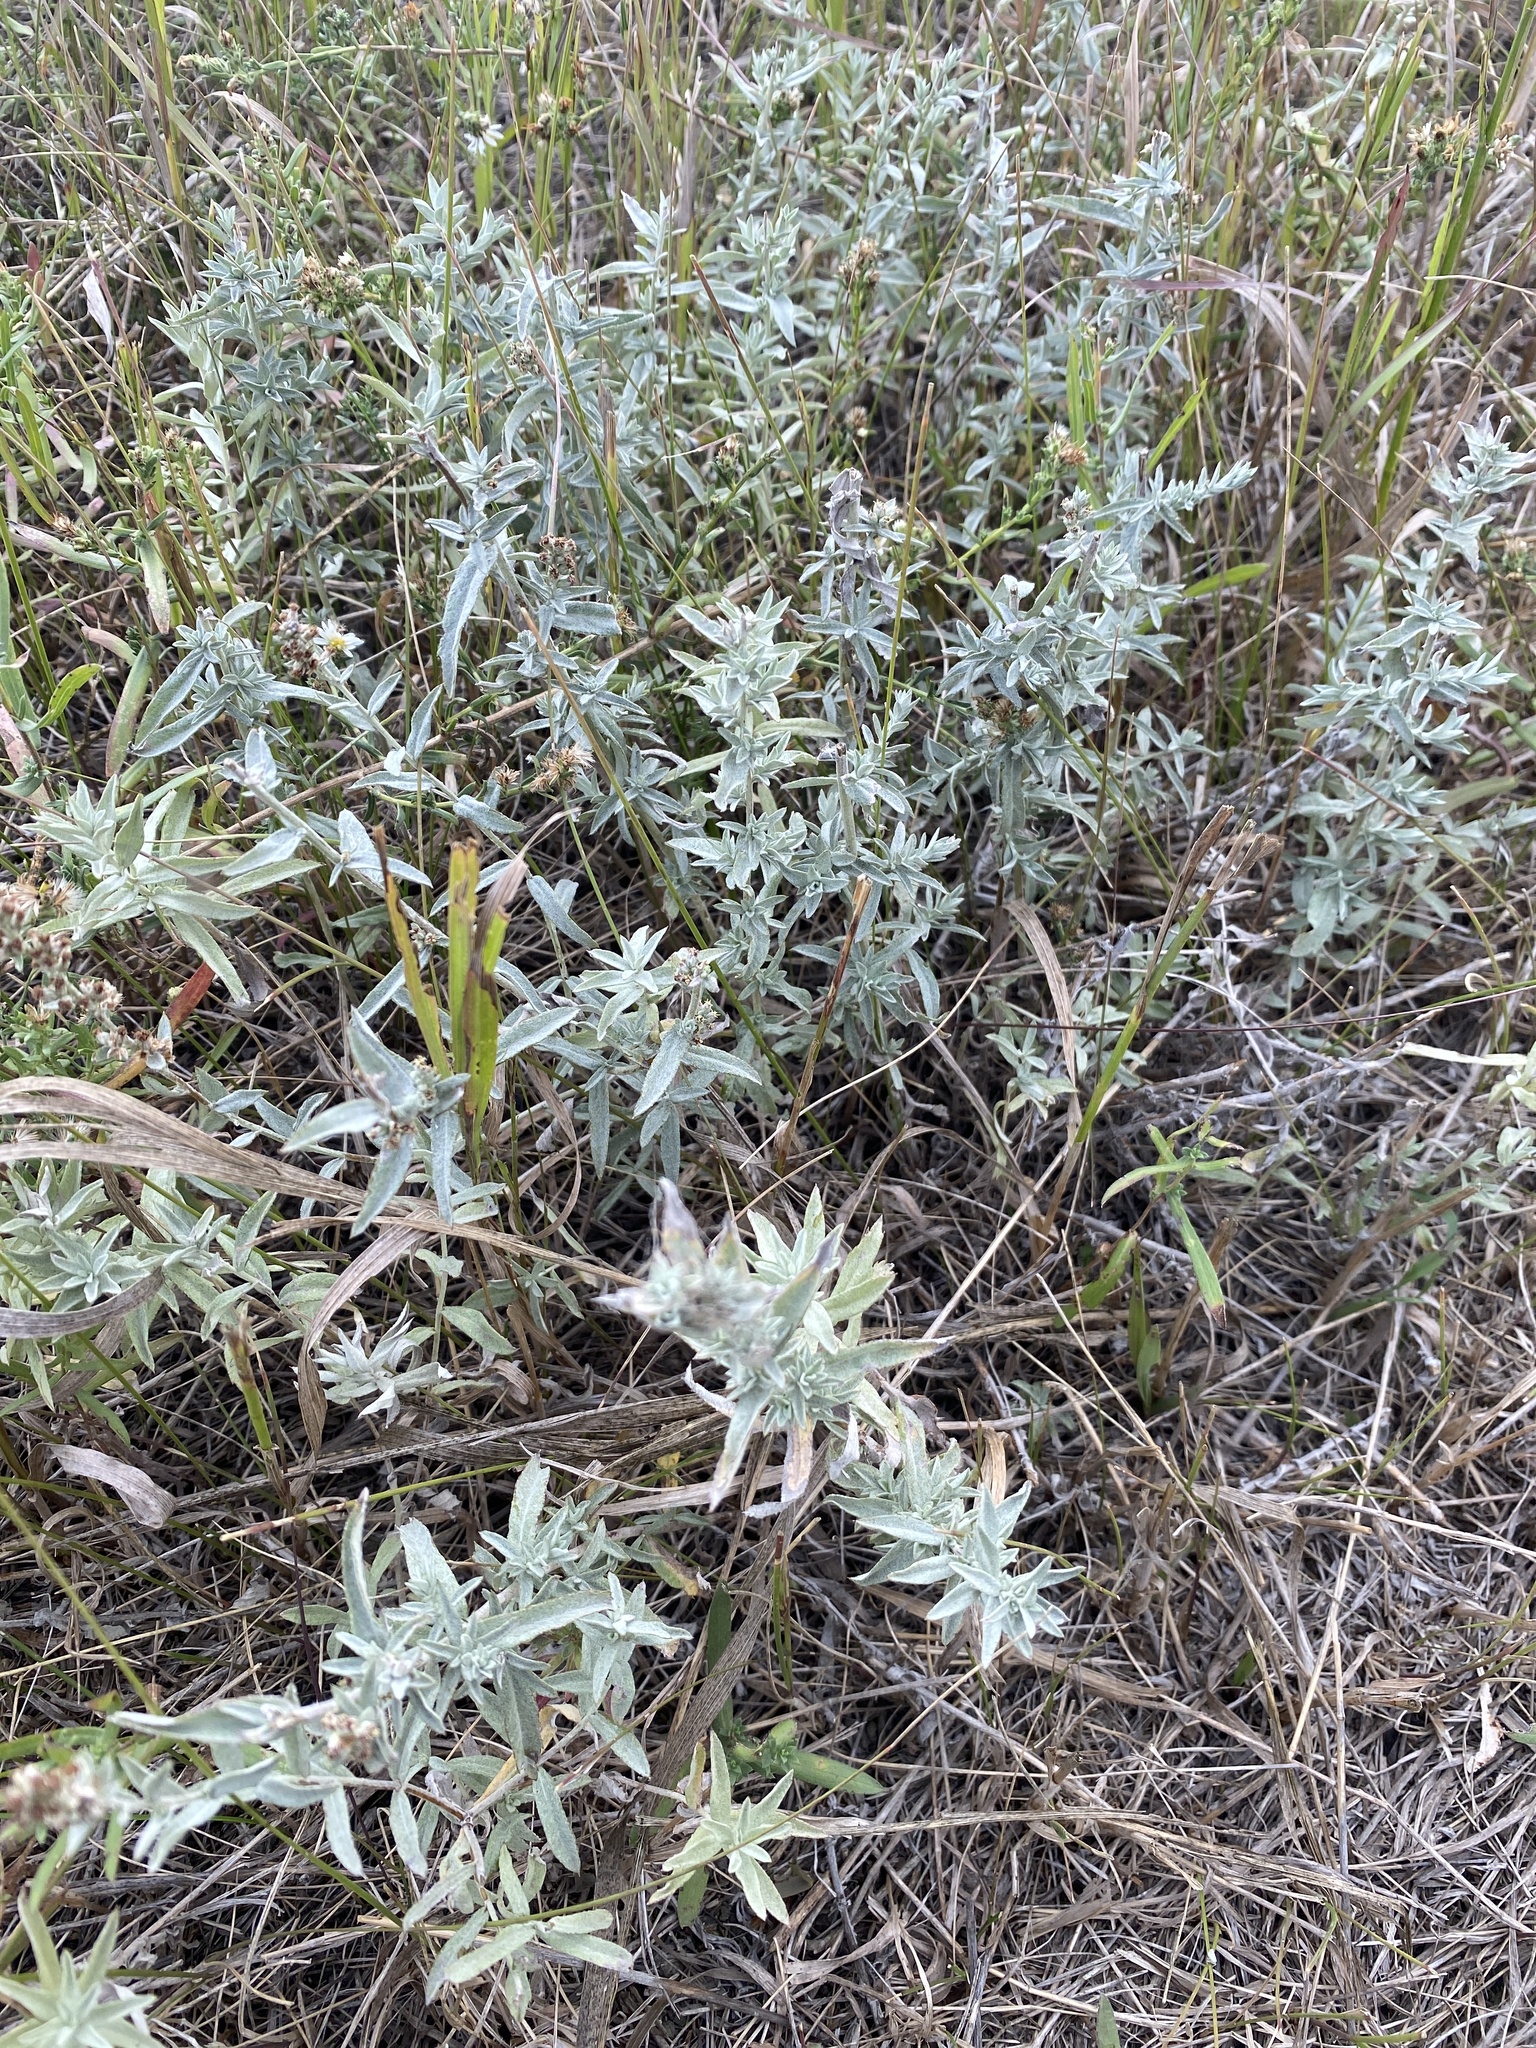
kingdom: Plantae
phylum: Tracheophyta
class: Magnoliopsida
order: Asterales
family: Asteraceae
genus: Artemisia
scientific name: Artemisia ludoviciana
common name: Western mugwort
